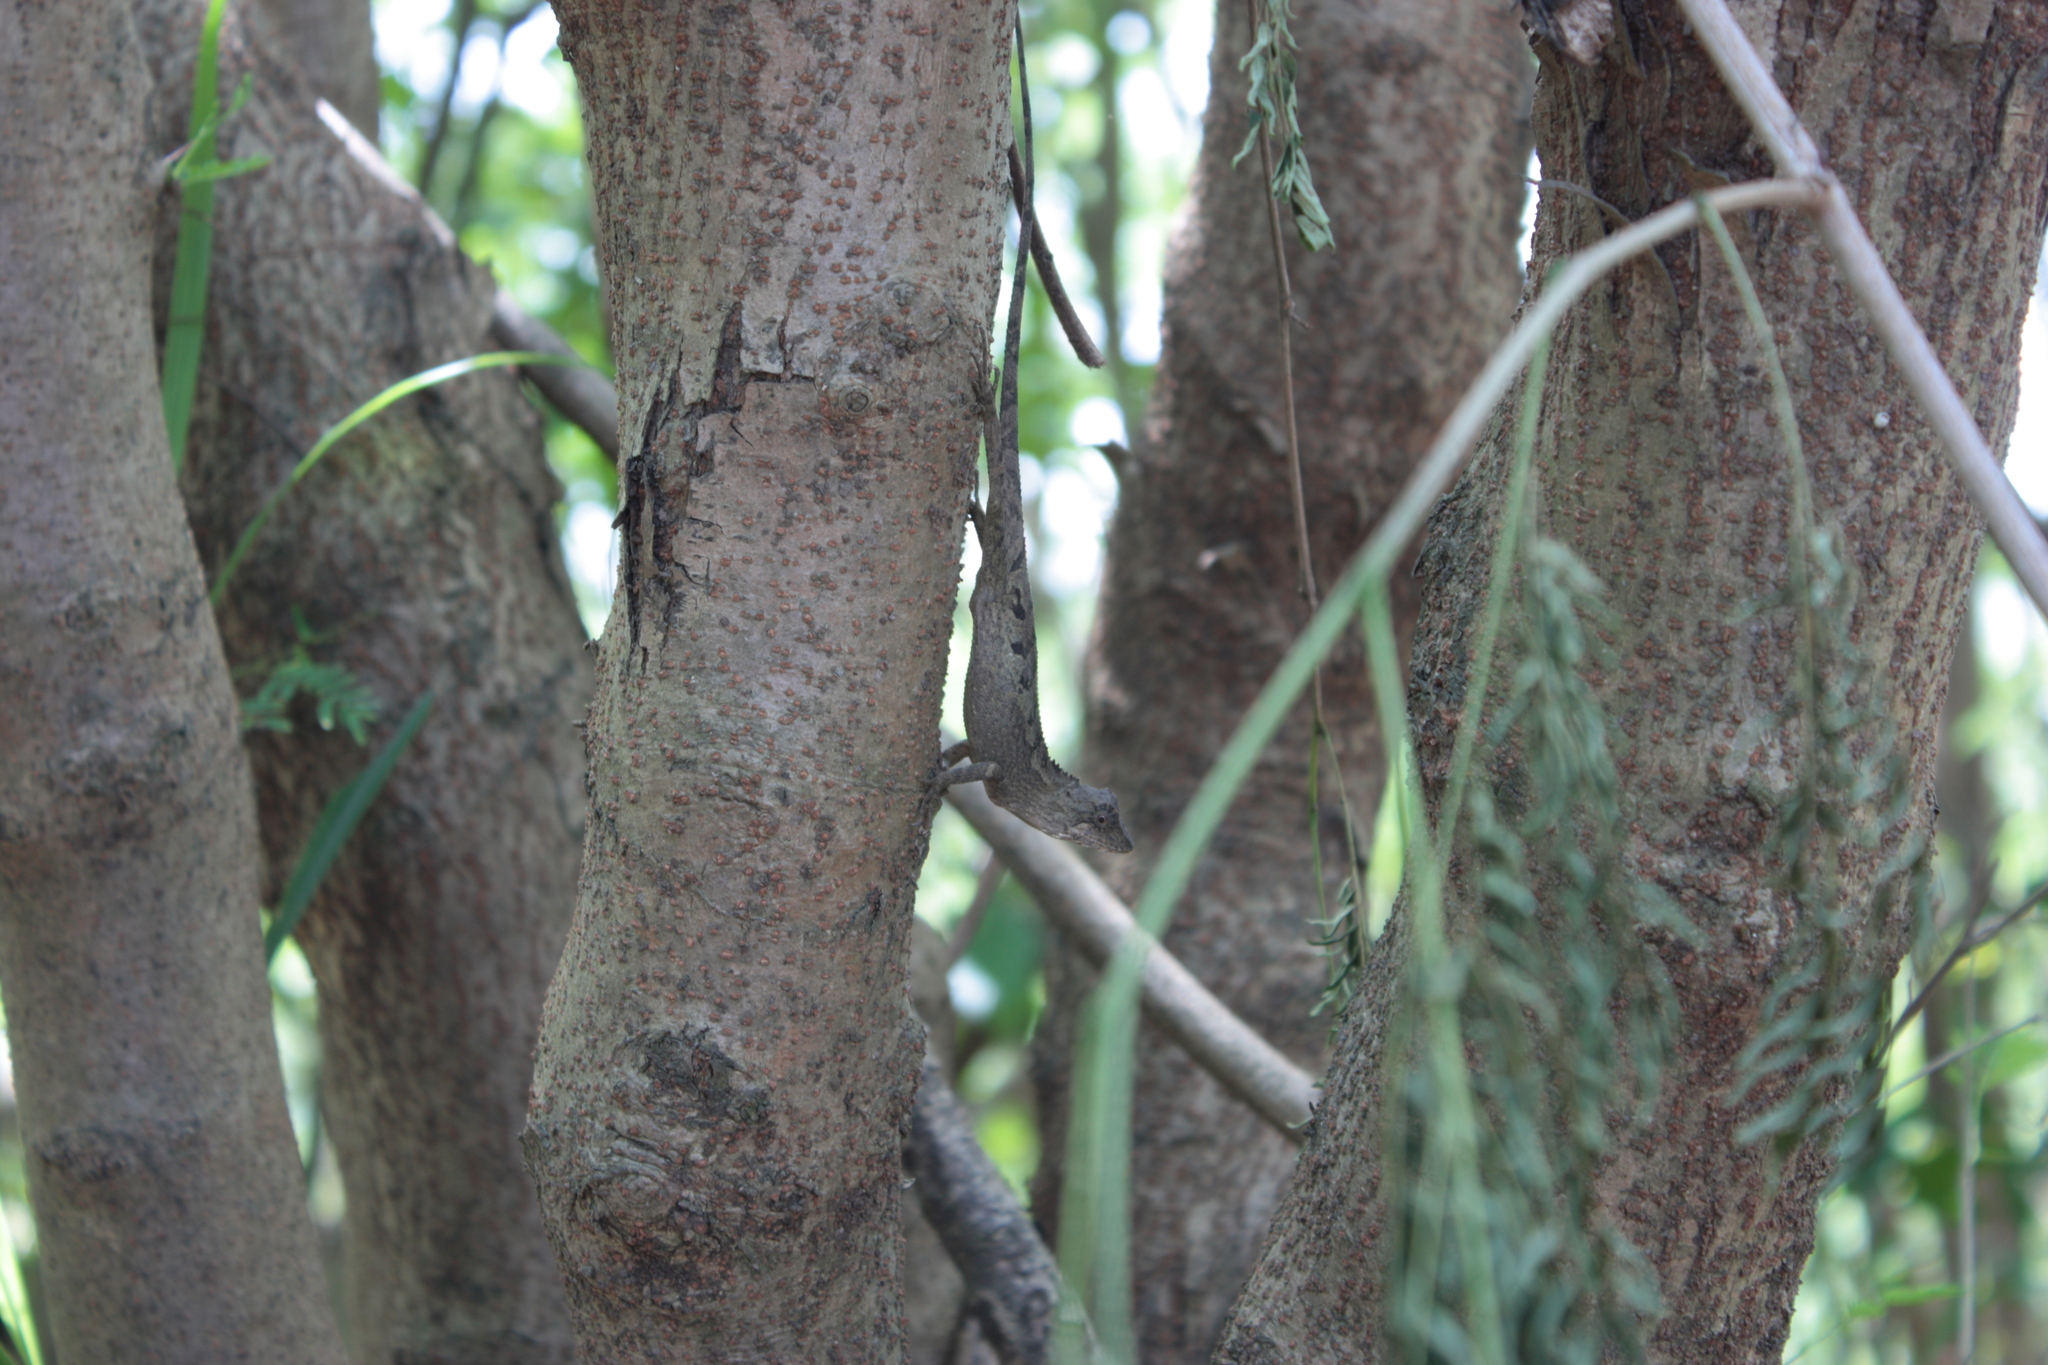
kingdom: Animalia
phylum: Chordata
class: Squamata
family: Agamidae
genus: Diploderma
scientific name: Diploderma swinhonis
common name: Taiwan japalure
